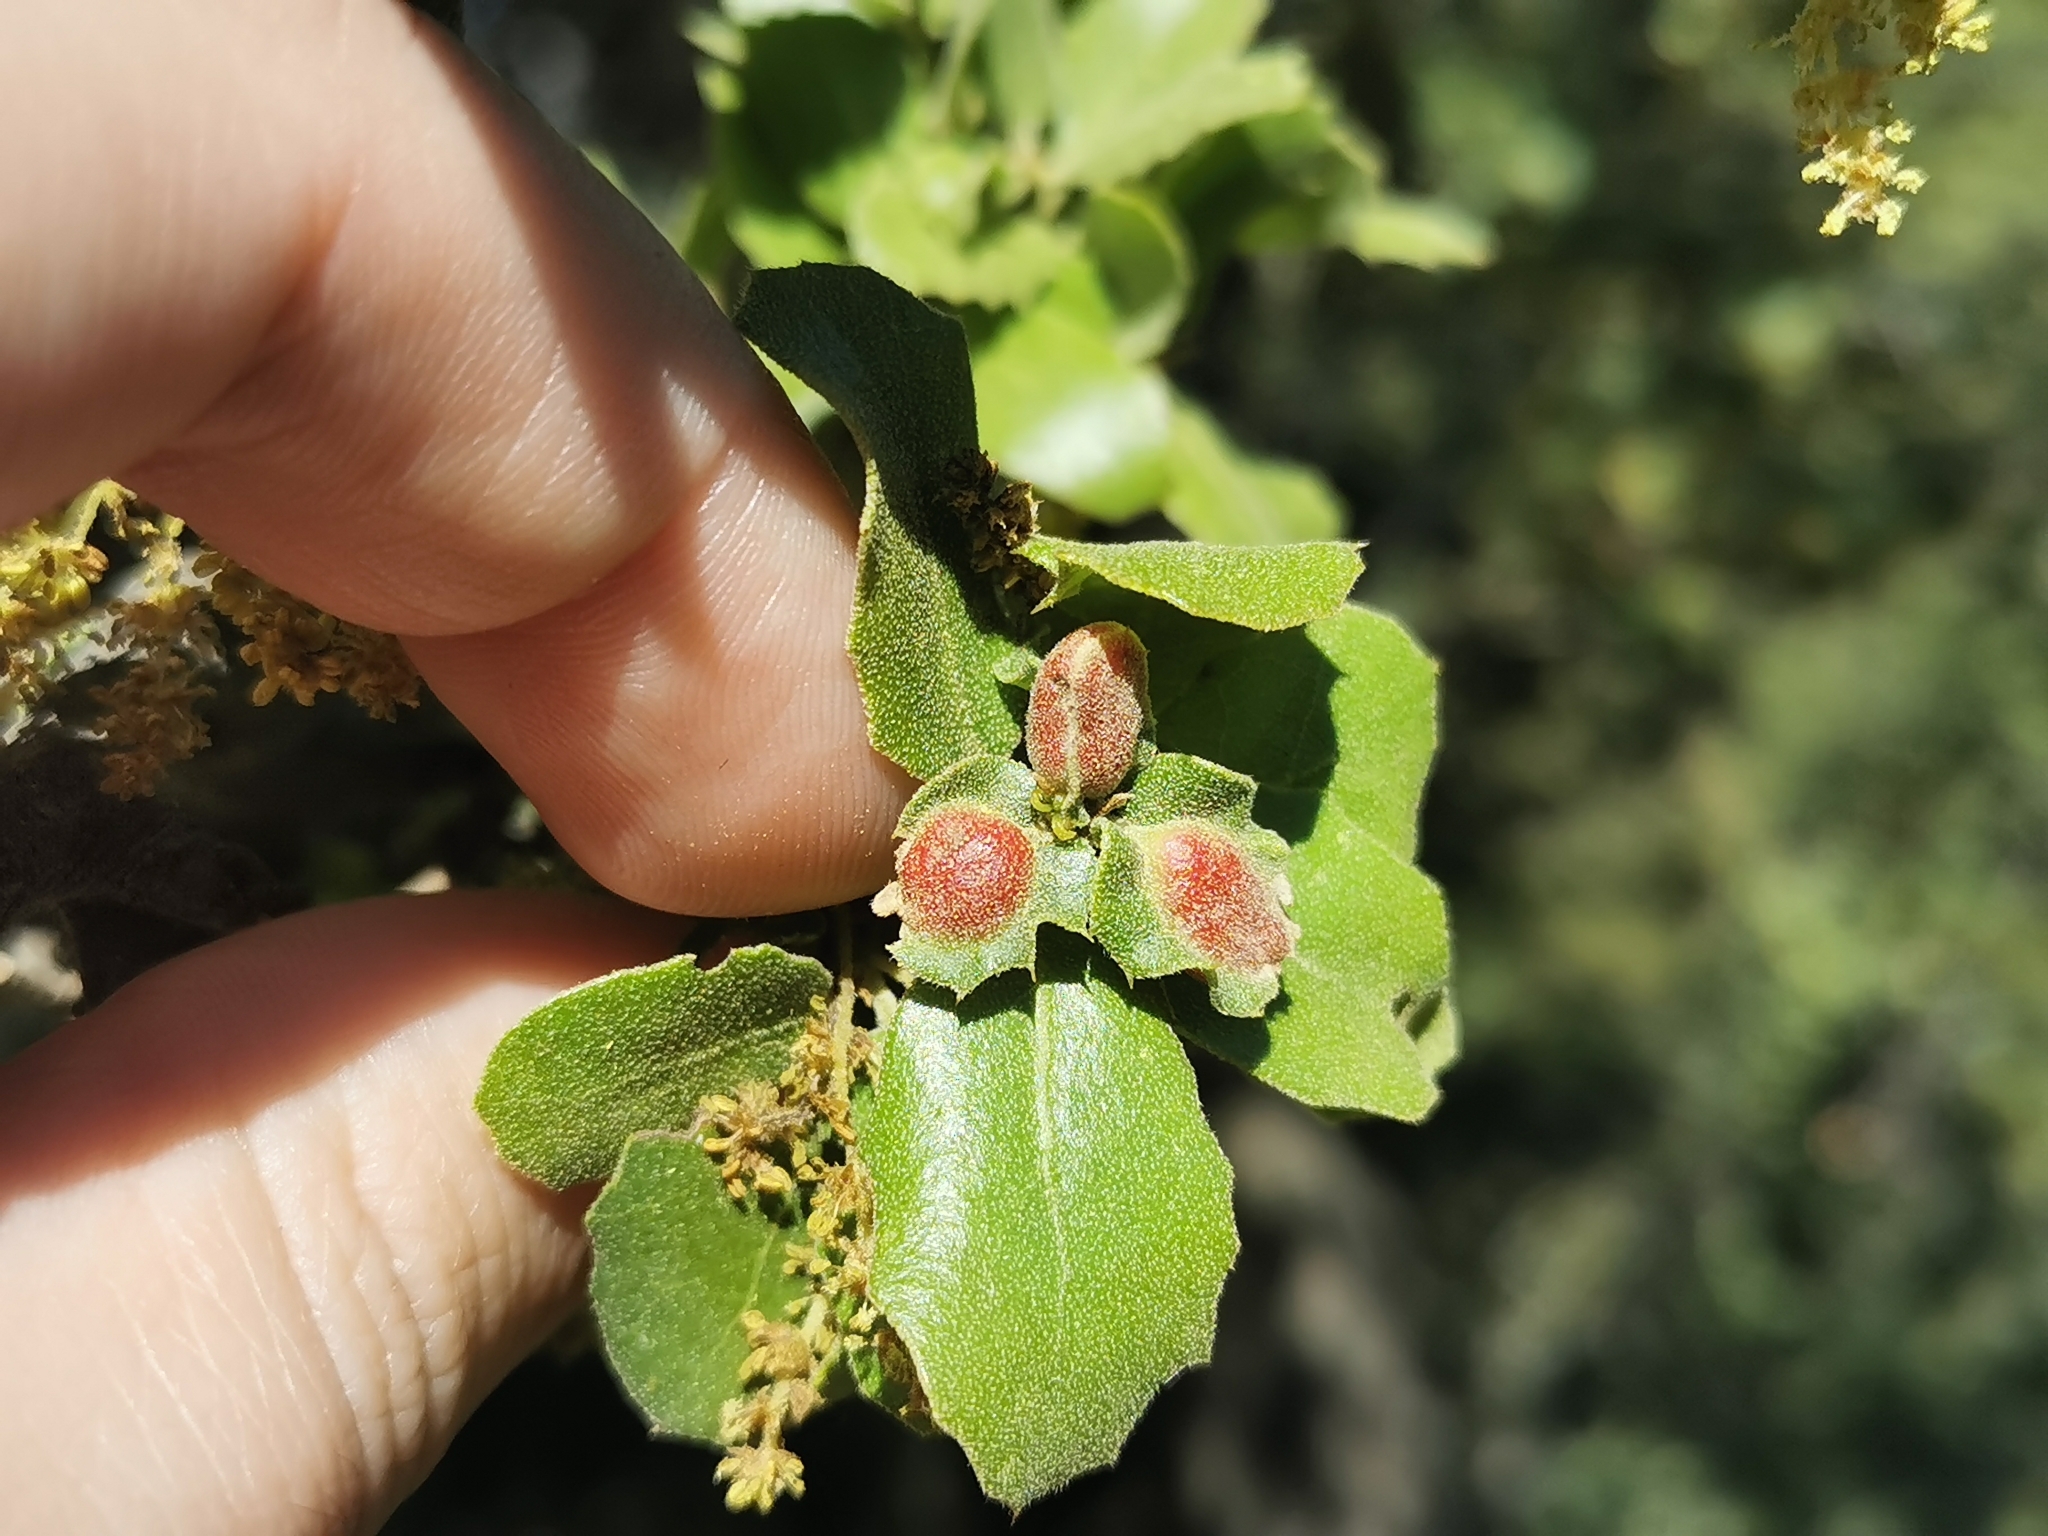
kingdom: Animalia
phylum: Arthropoda
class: Insecta
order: Hymenoptera
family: Cynipidae
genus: Plagiotrochus
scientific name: Plagiotrochus quercusilicis
